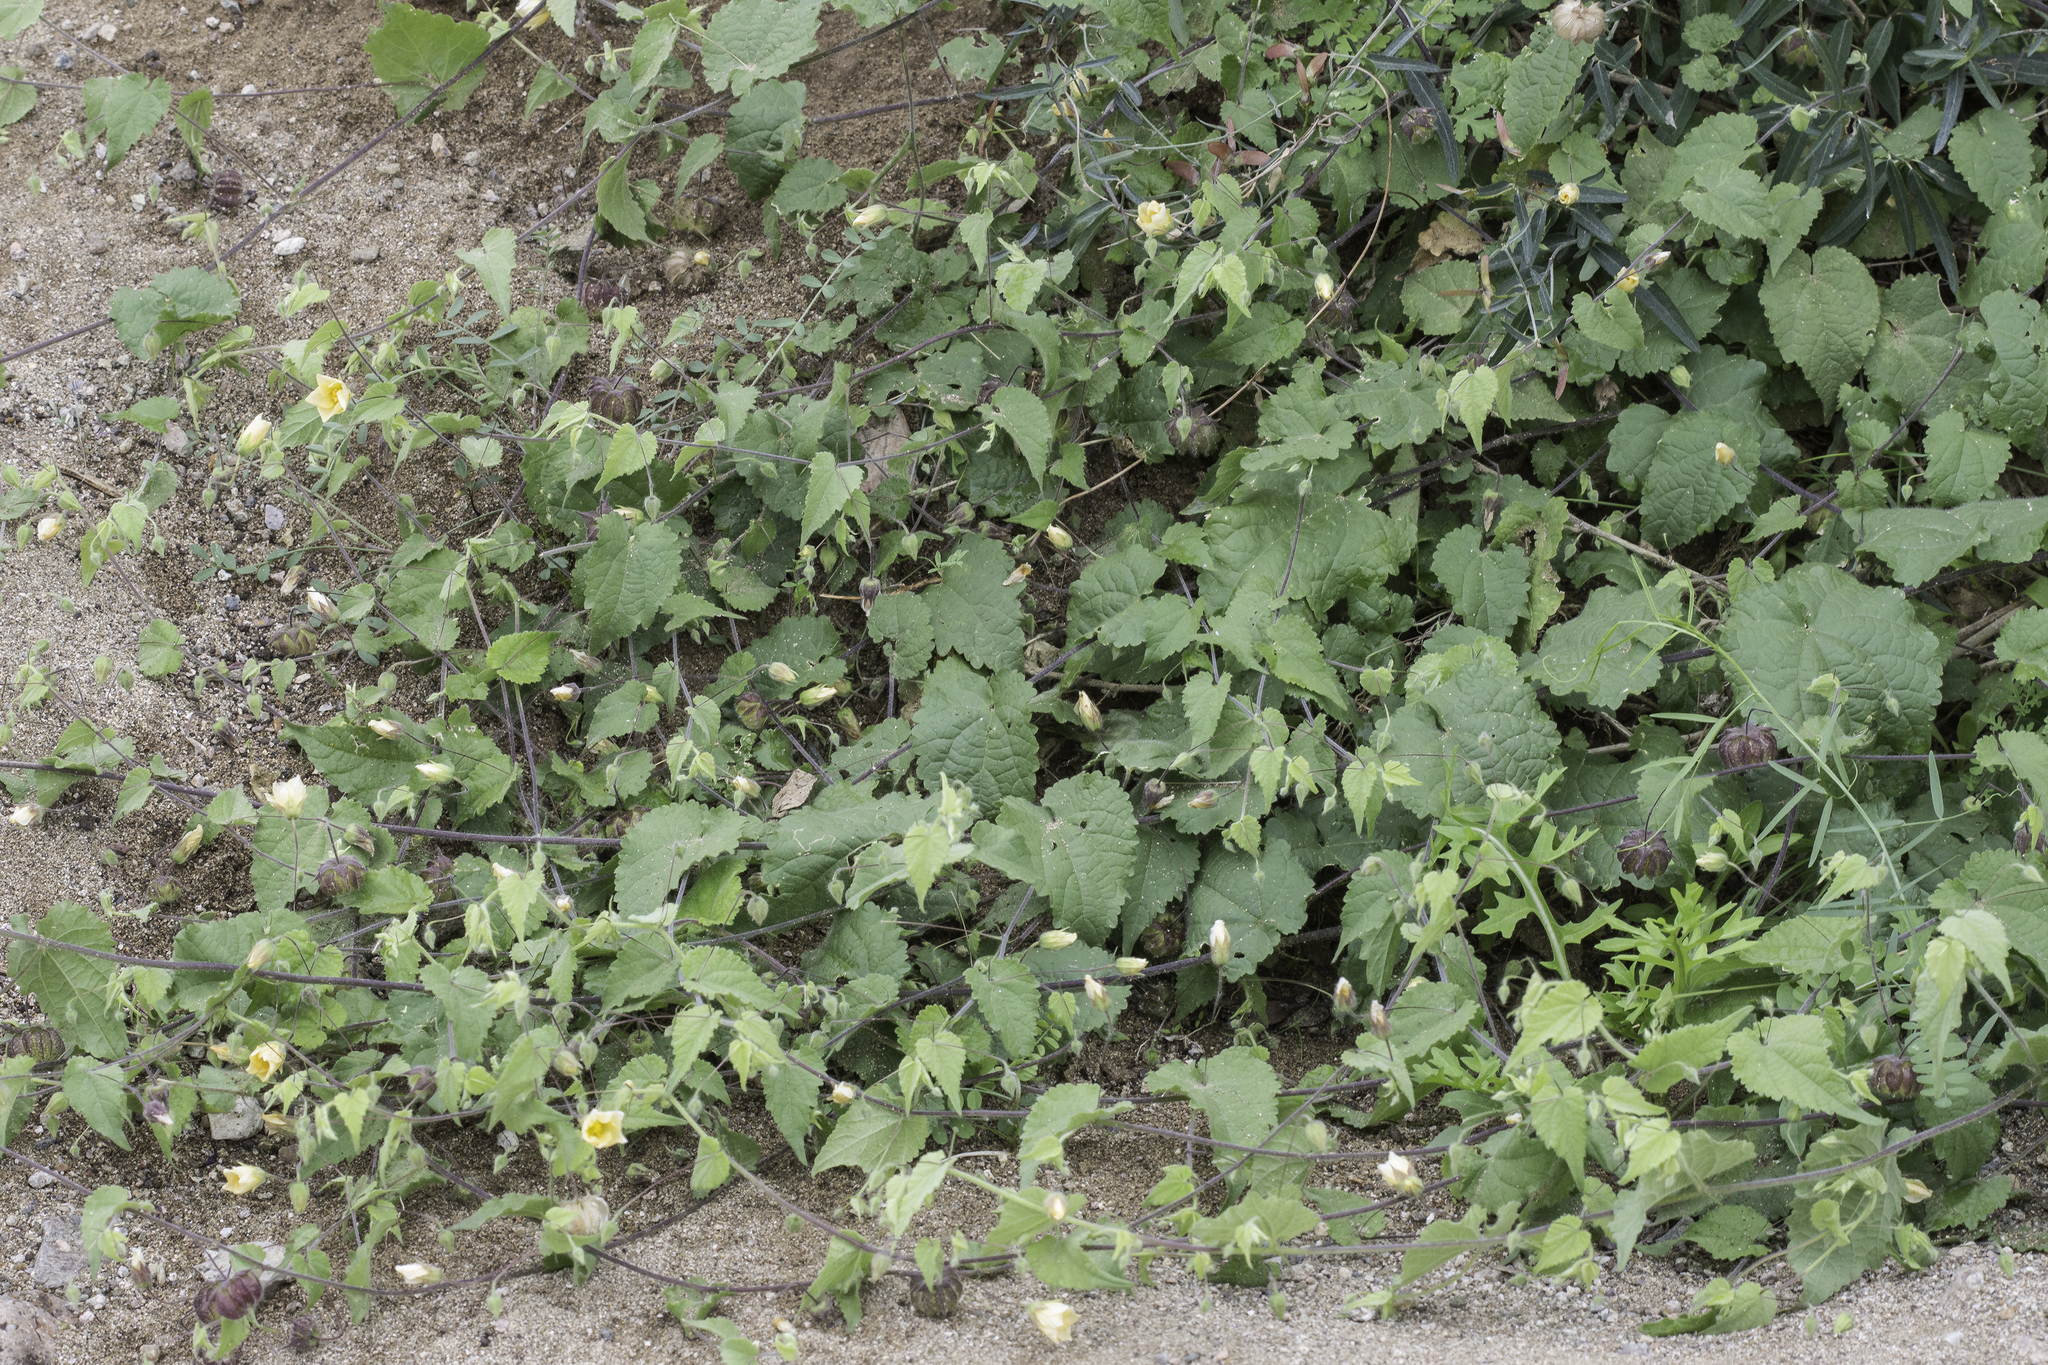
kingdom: Plantae
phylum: Tracheophyta
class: Magnoliopsida
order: Malvales
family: Malvaceae
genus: Herissantia
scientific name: Herissantia crispa
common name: Bladdermallow
